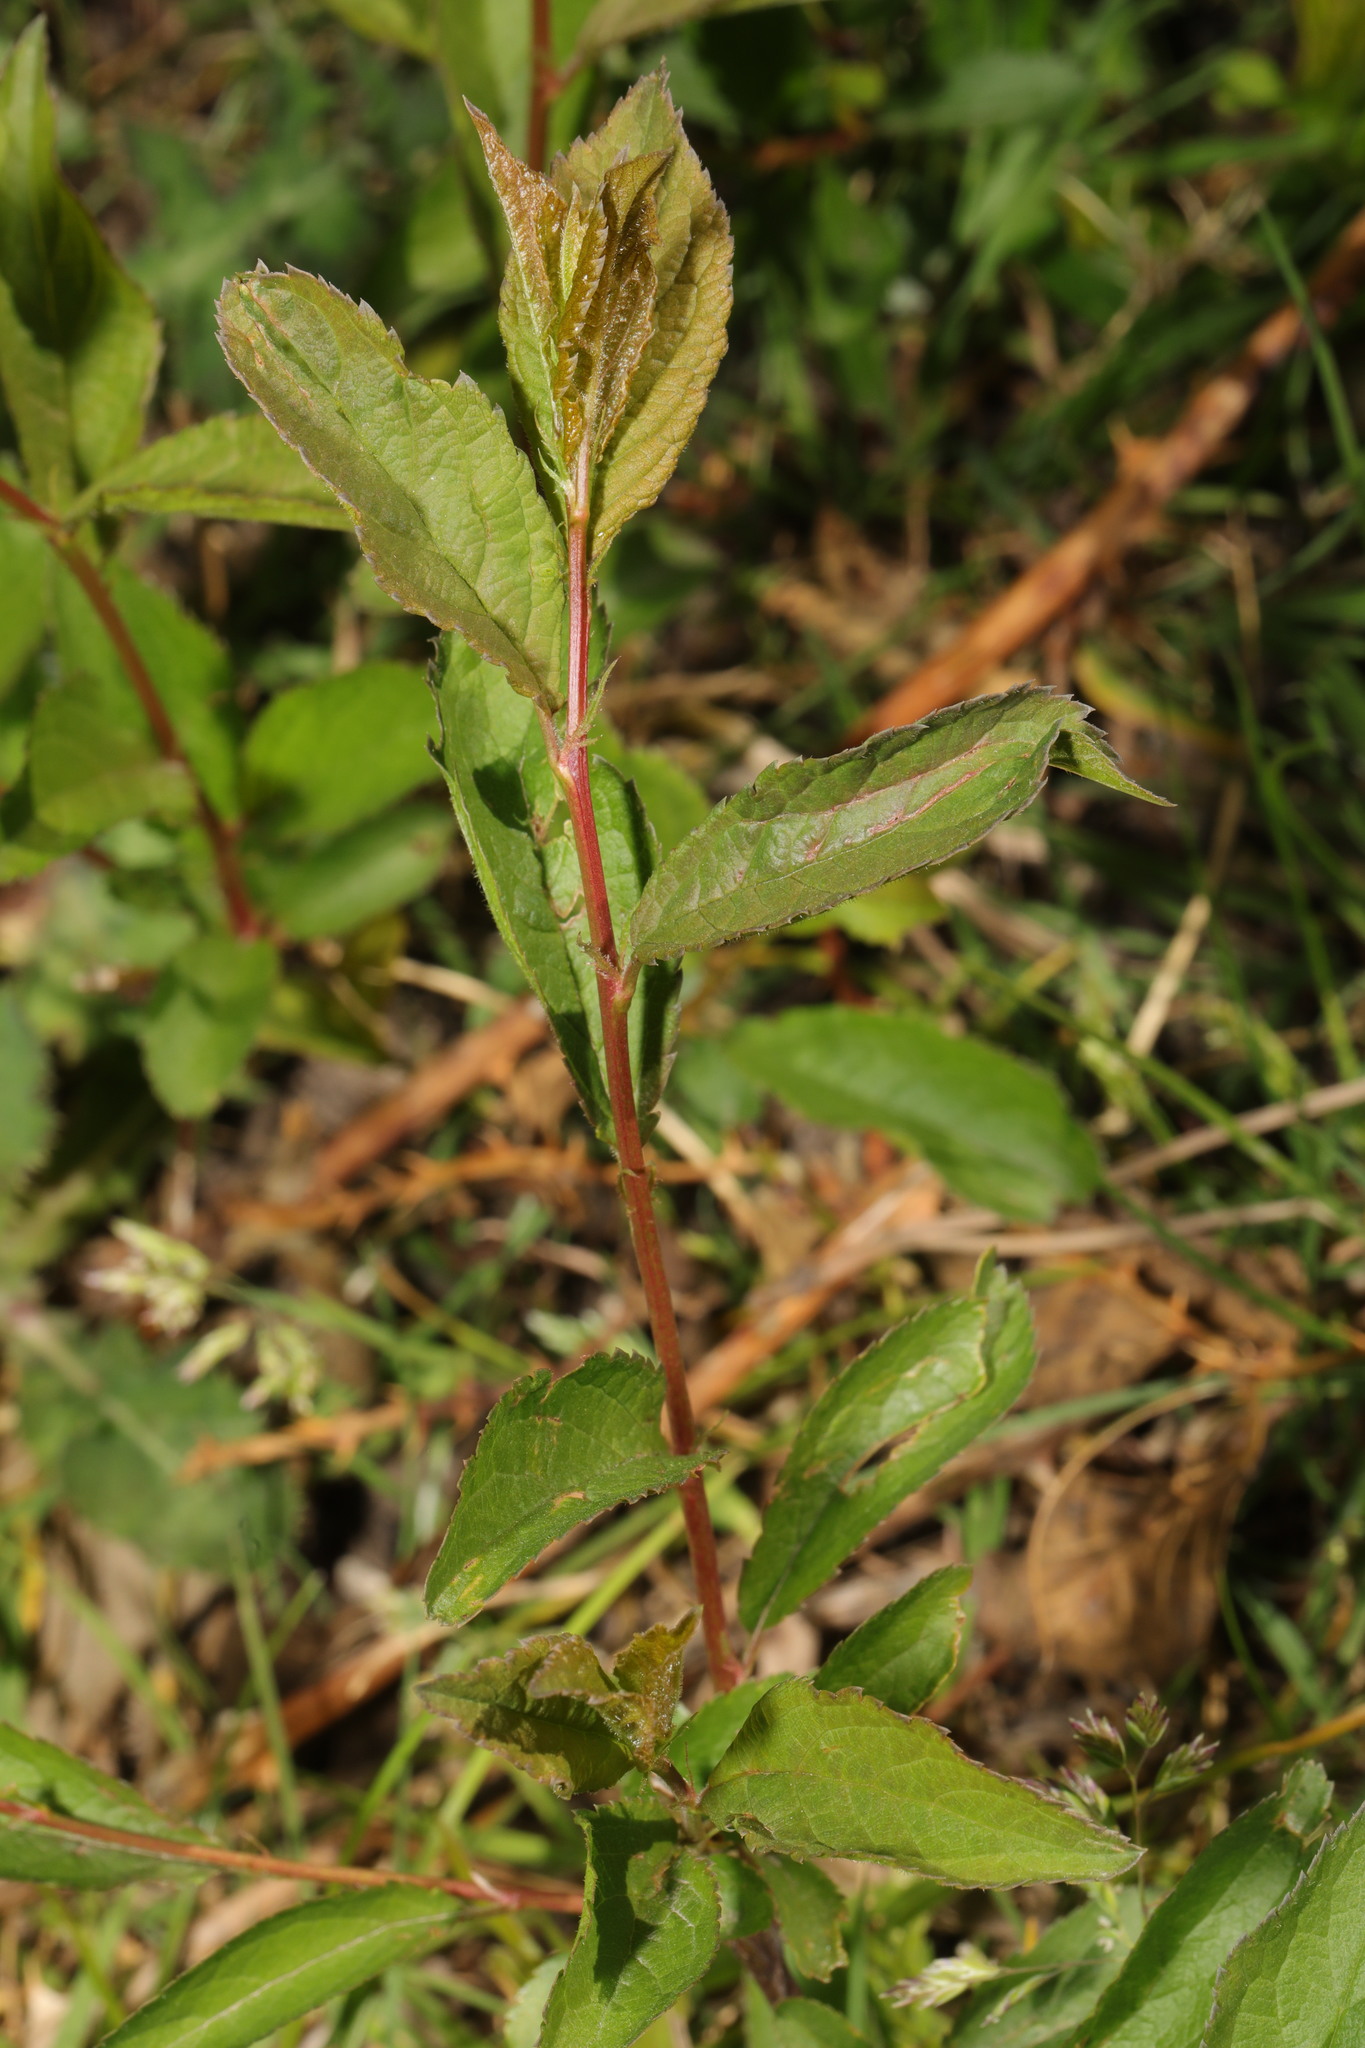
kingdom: Plantae
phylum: Tracheophyta
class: Magnoliopsida
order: Rosales
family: Rosaceae
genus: Prunus
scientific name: Prunus spinosa
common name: Blackthorn
